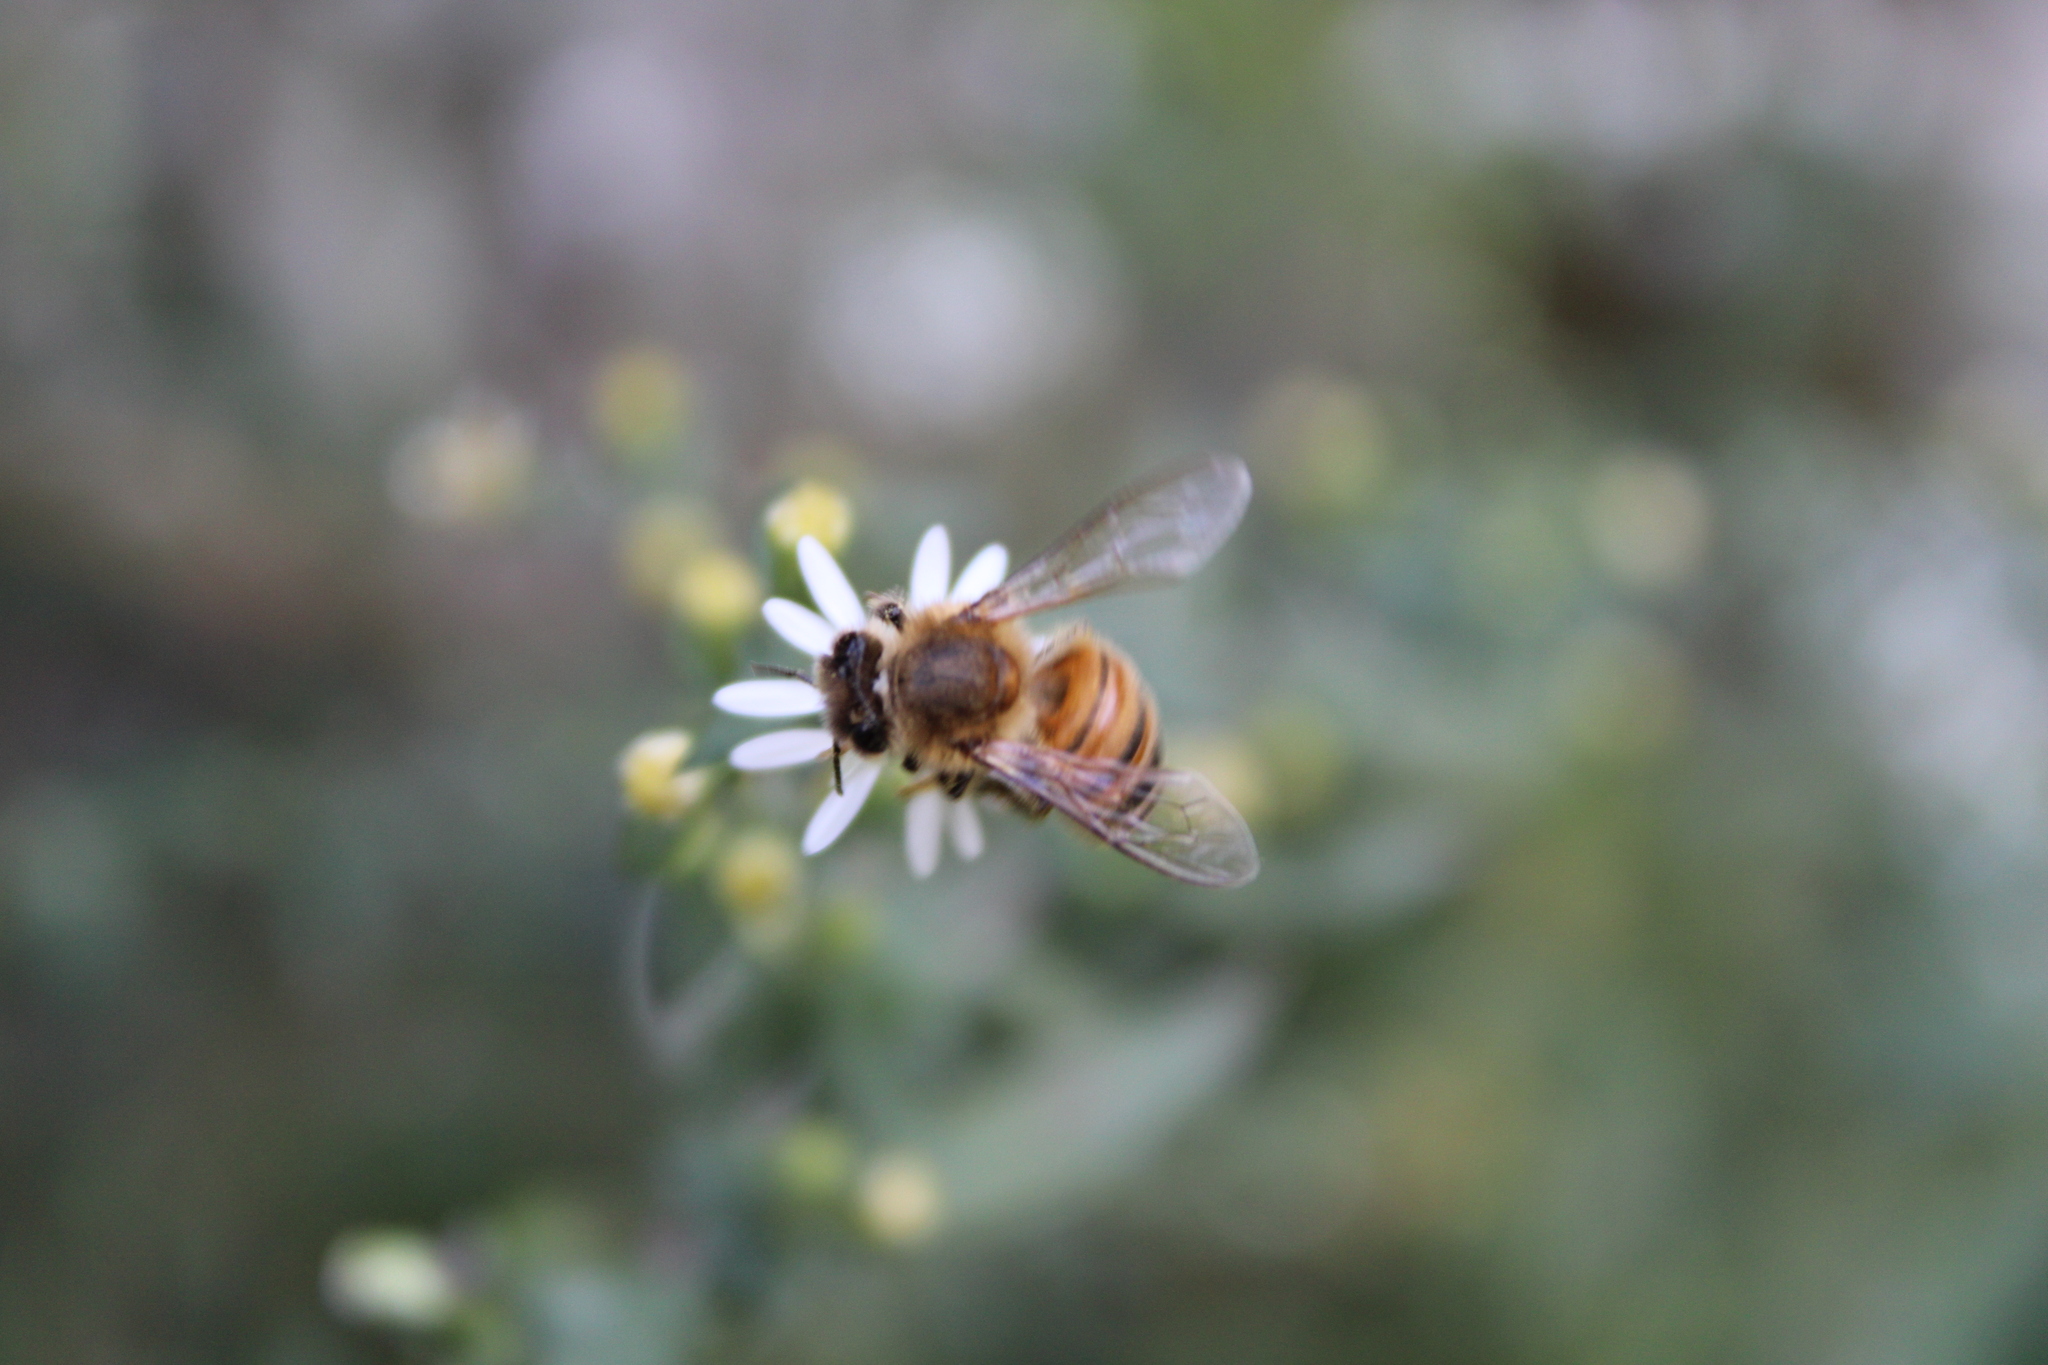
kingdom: Animalia
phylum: Arthropoda
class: Insecta
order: Hymenoptera
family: Apidae
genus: Apis
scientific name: Apis mellifera
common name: Honey bee
